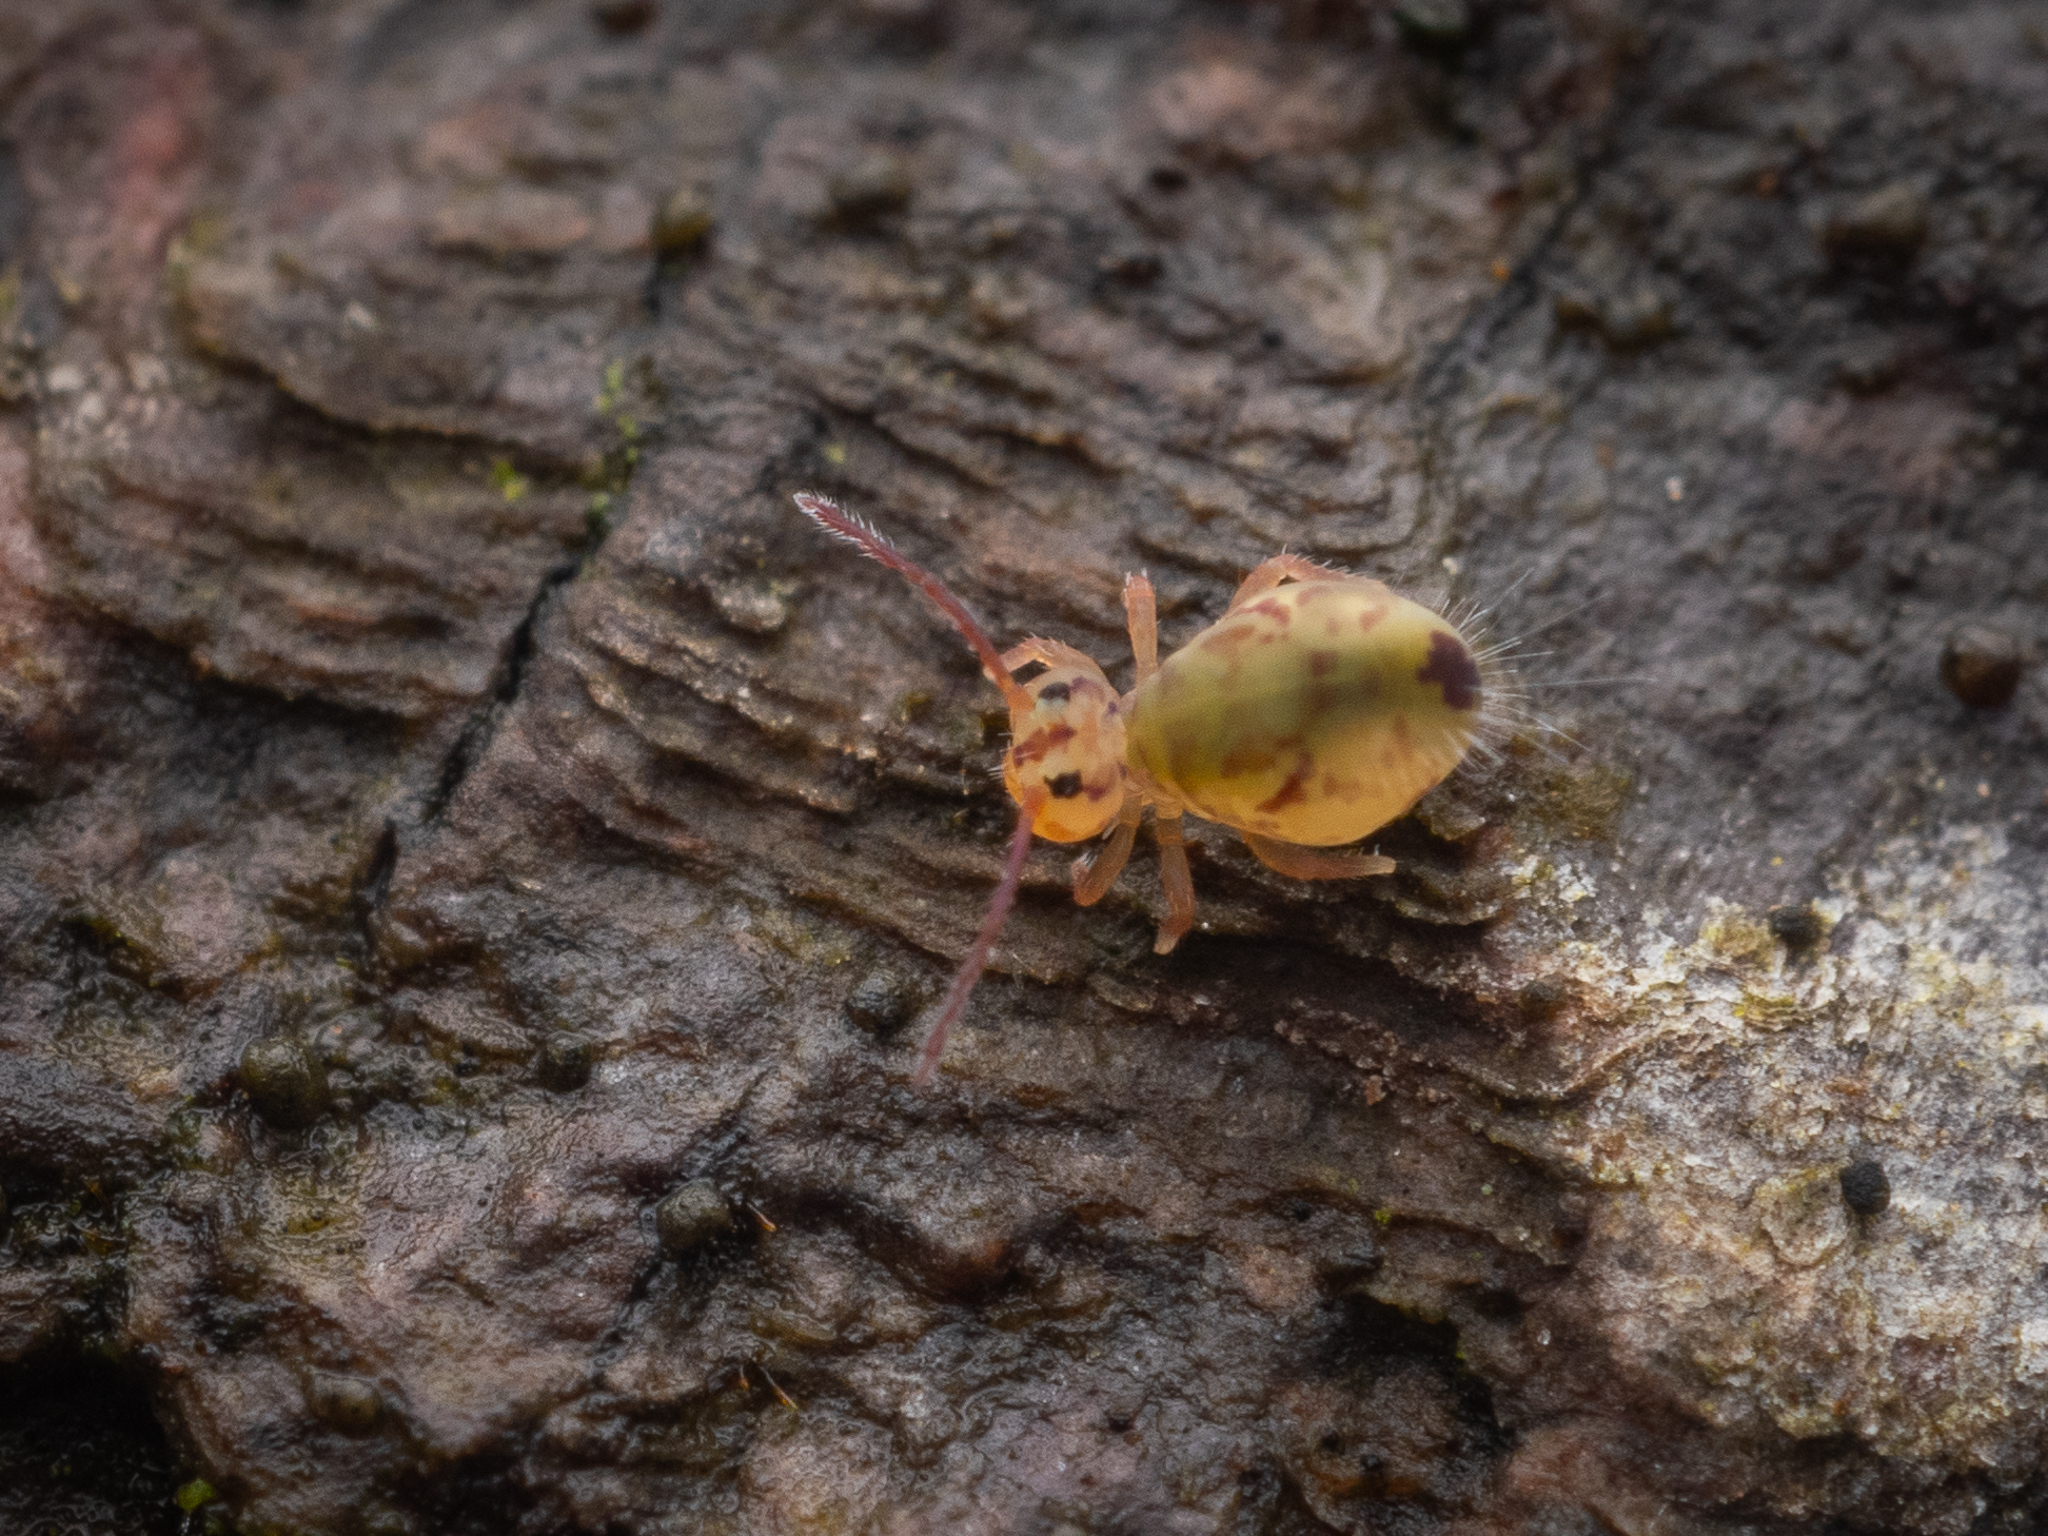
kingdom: Animalia
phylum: Arthropoda
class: Collembola
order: Symphypleona
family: Dicyrtomidae
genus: Dicyrtomina
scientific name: Dicyrtomina ornata
